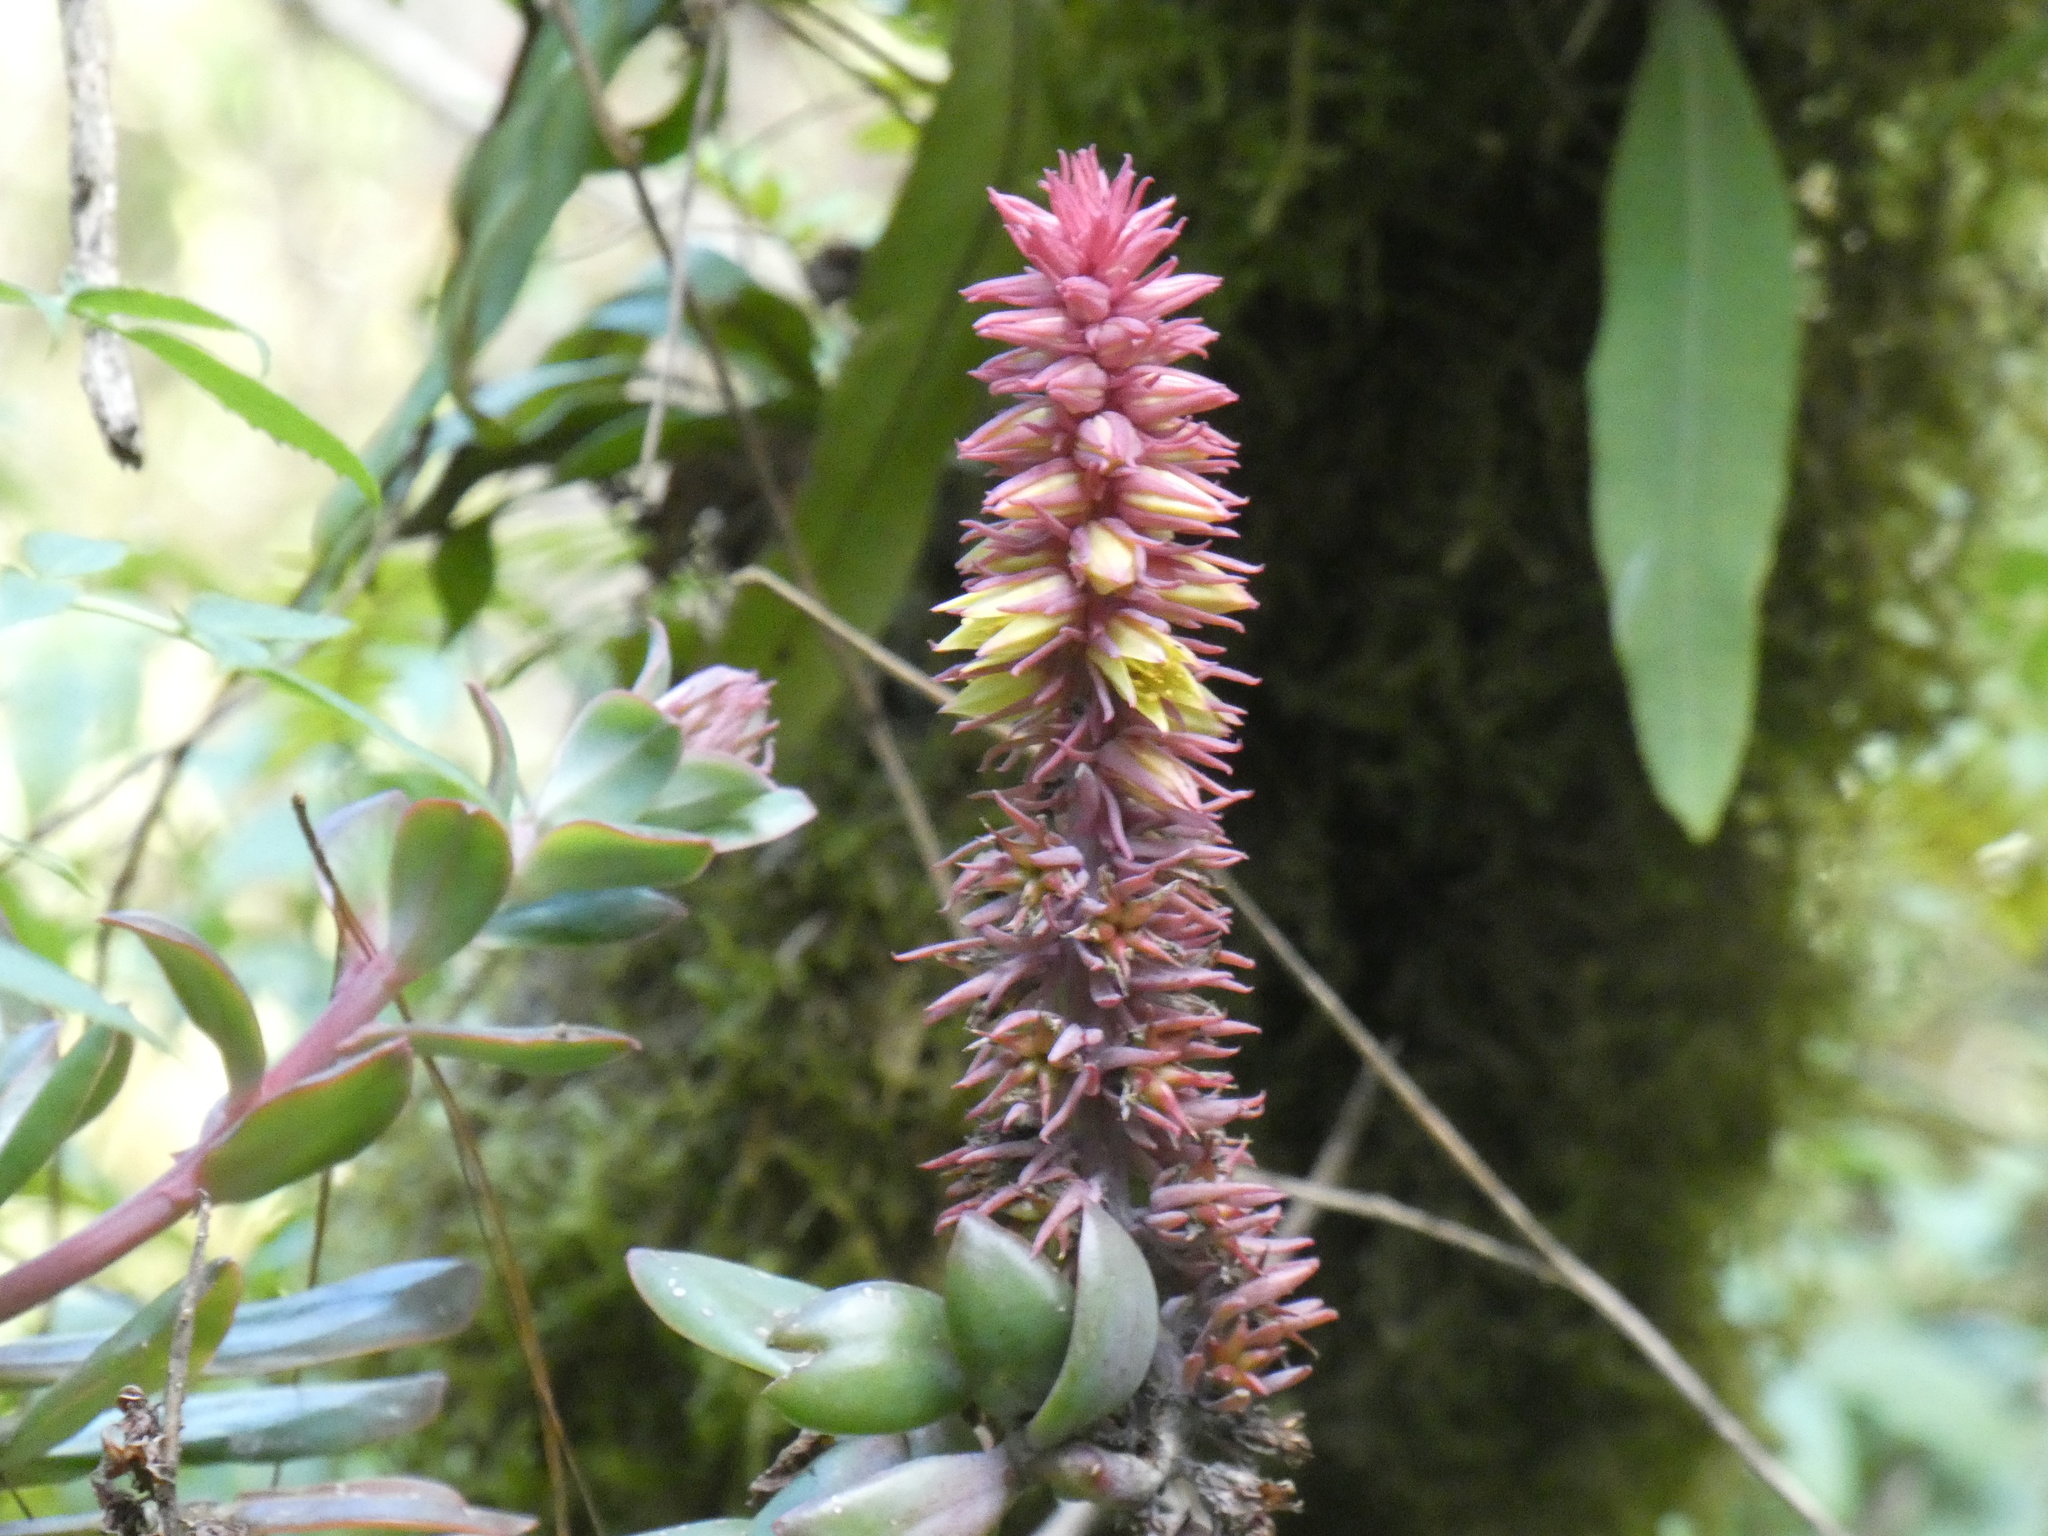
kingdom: Plantae
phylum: Tracheophyta
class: Magnoliopsida
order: Saxifragales
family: Crassulaceae
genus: Echeveria
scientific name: Echeveria rosea
